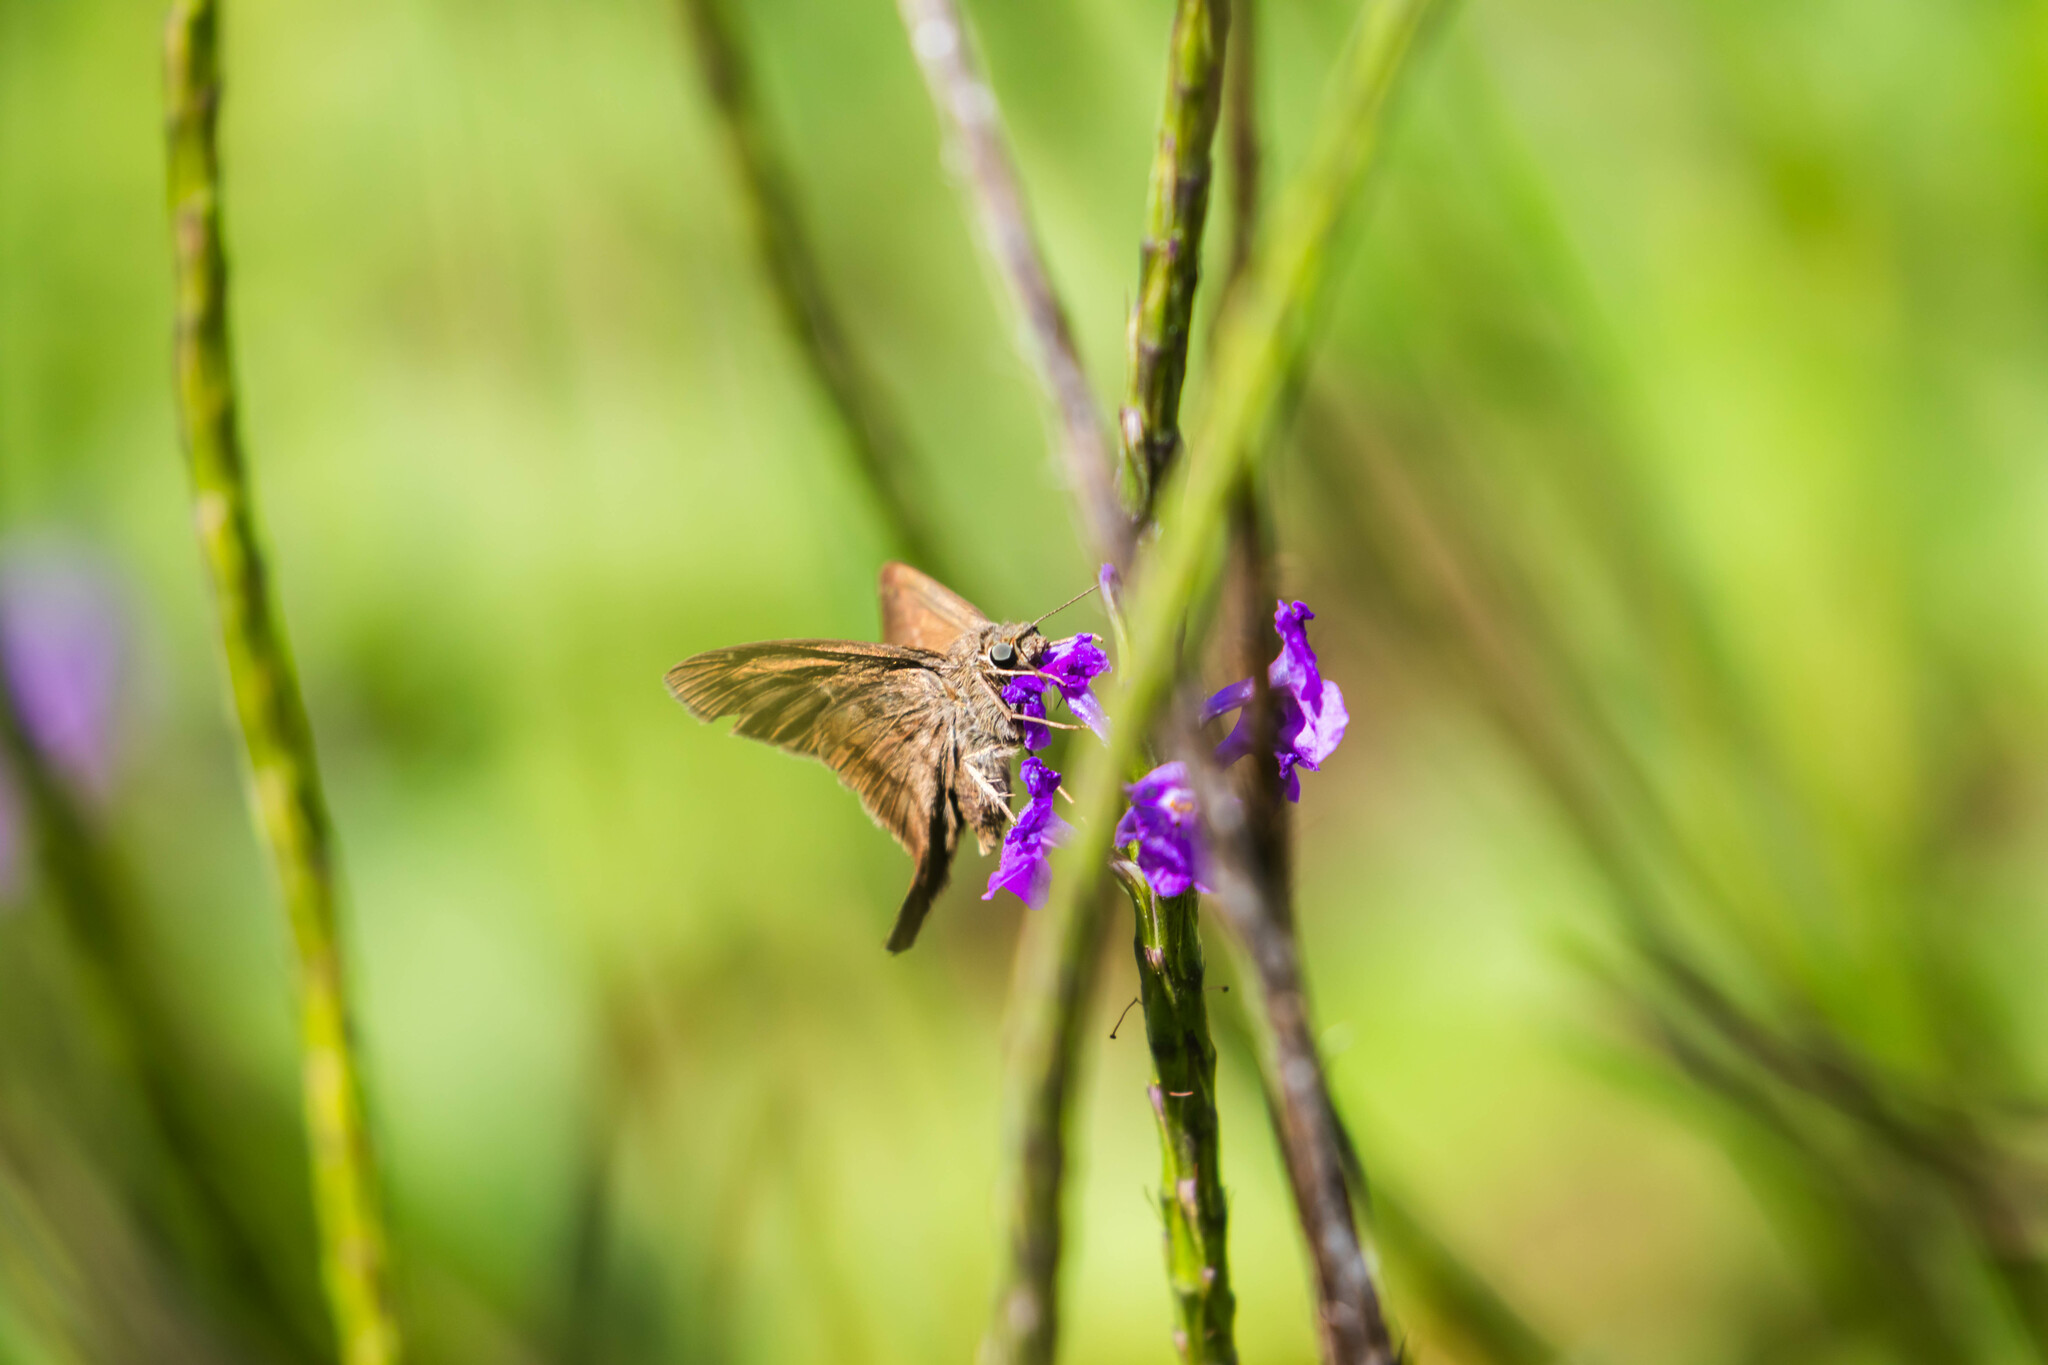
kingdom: Animalia
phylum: Arthropoda
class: Insecta
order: Lepidoptera
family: Hesperiidae
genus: Urbanus
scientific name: Urbanus simplicius
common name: Plain longtail
